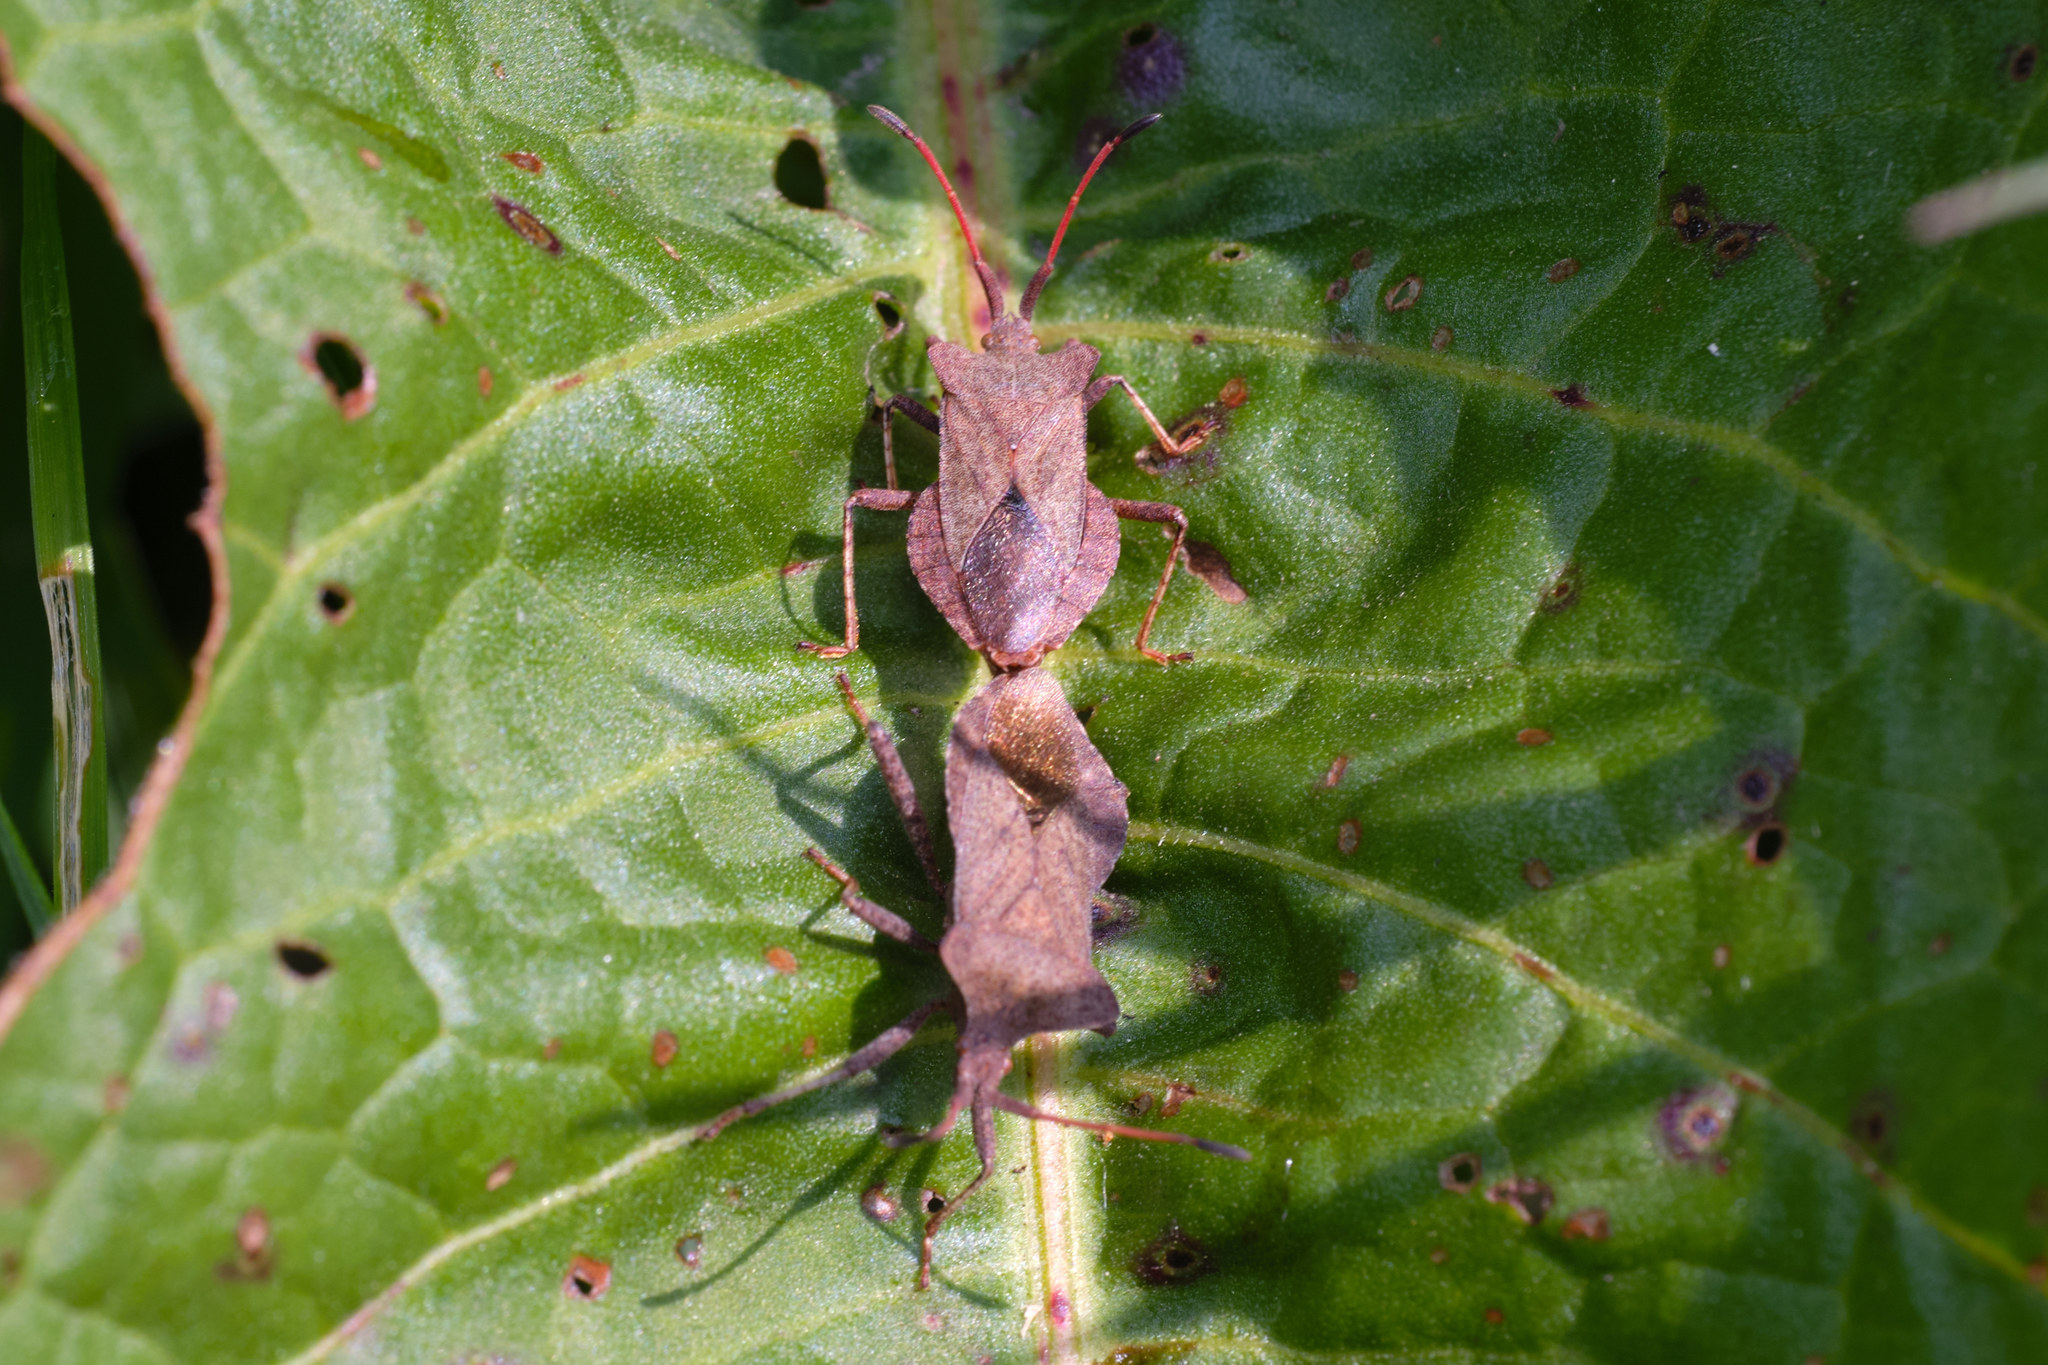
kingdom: Animalia
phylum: Arthropoda
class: Insecta
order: Hemiptera
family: Coreidae
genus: Coreus
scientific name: Coreus marginatus
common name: Dock bug
